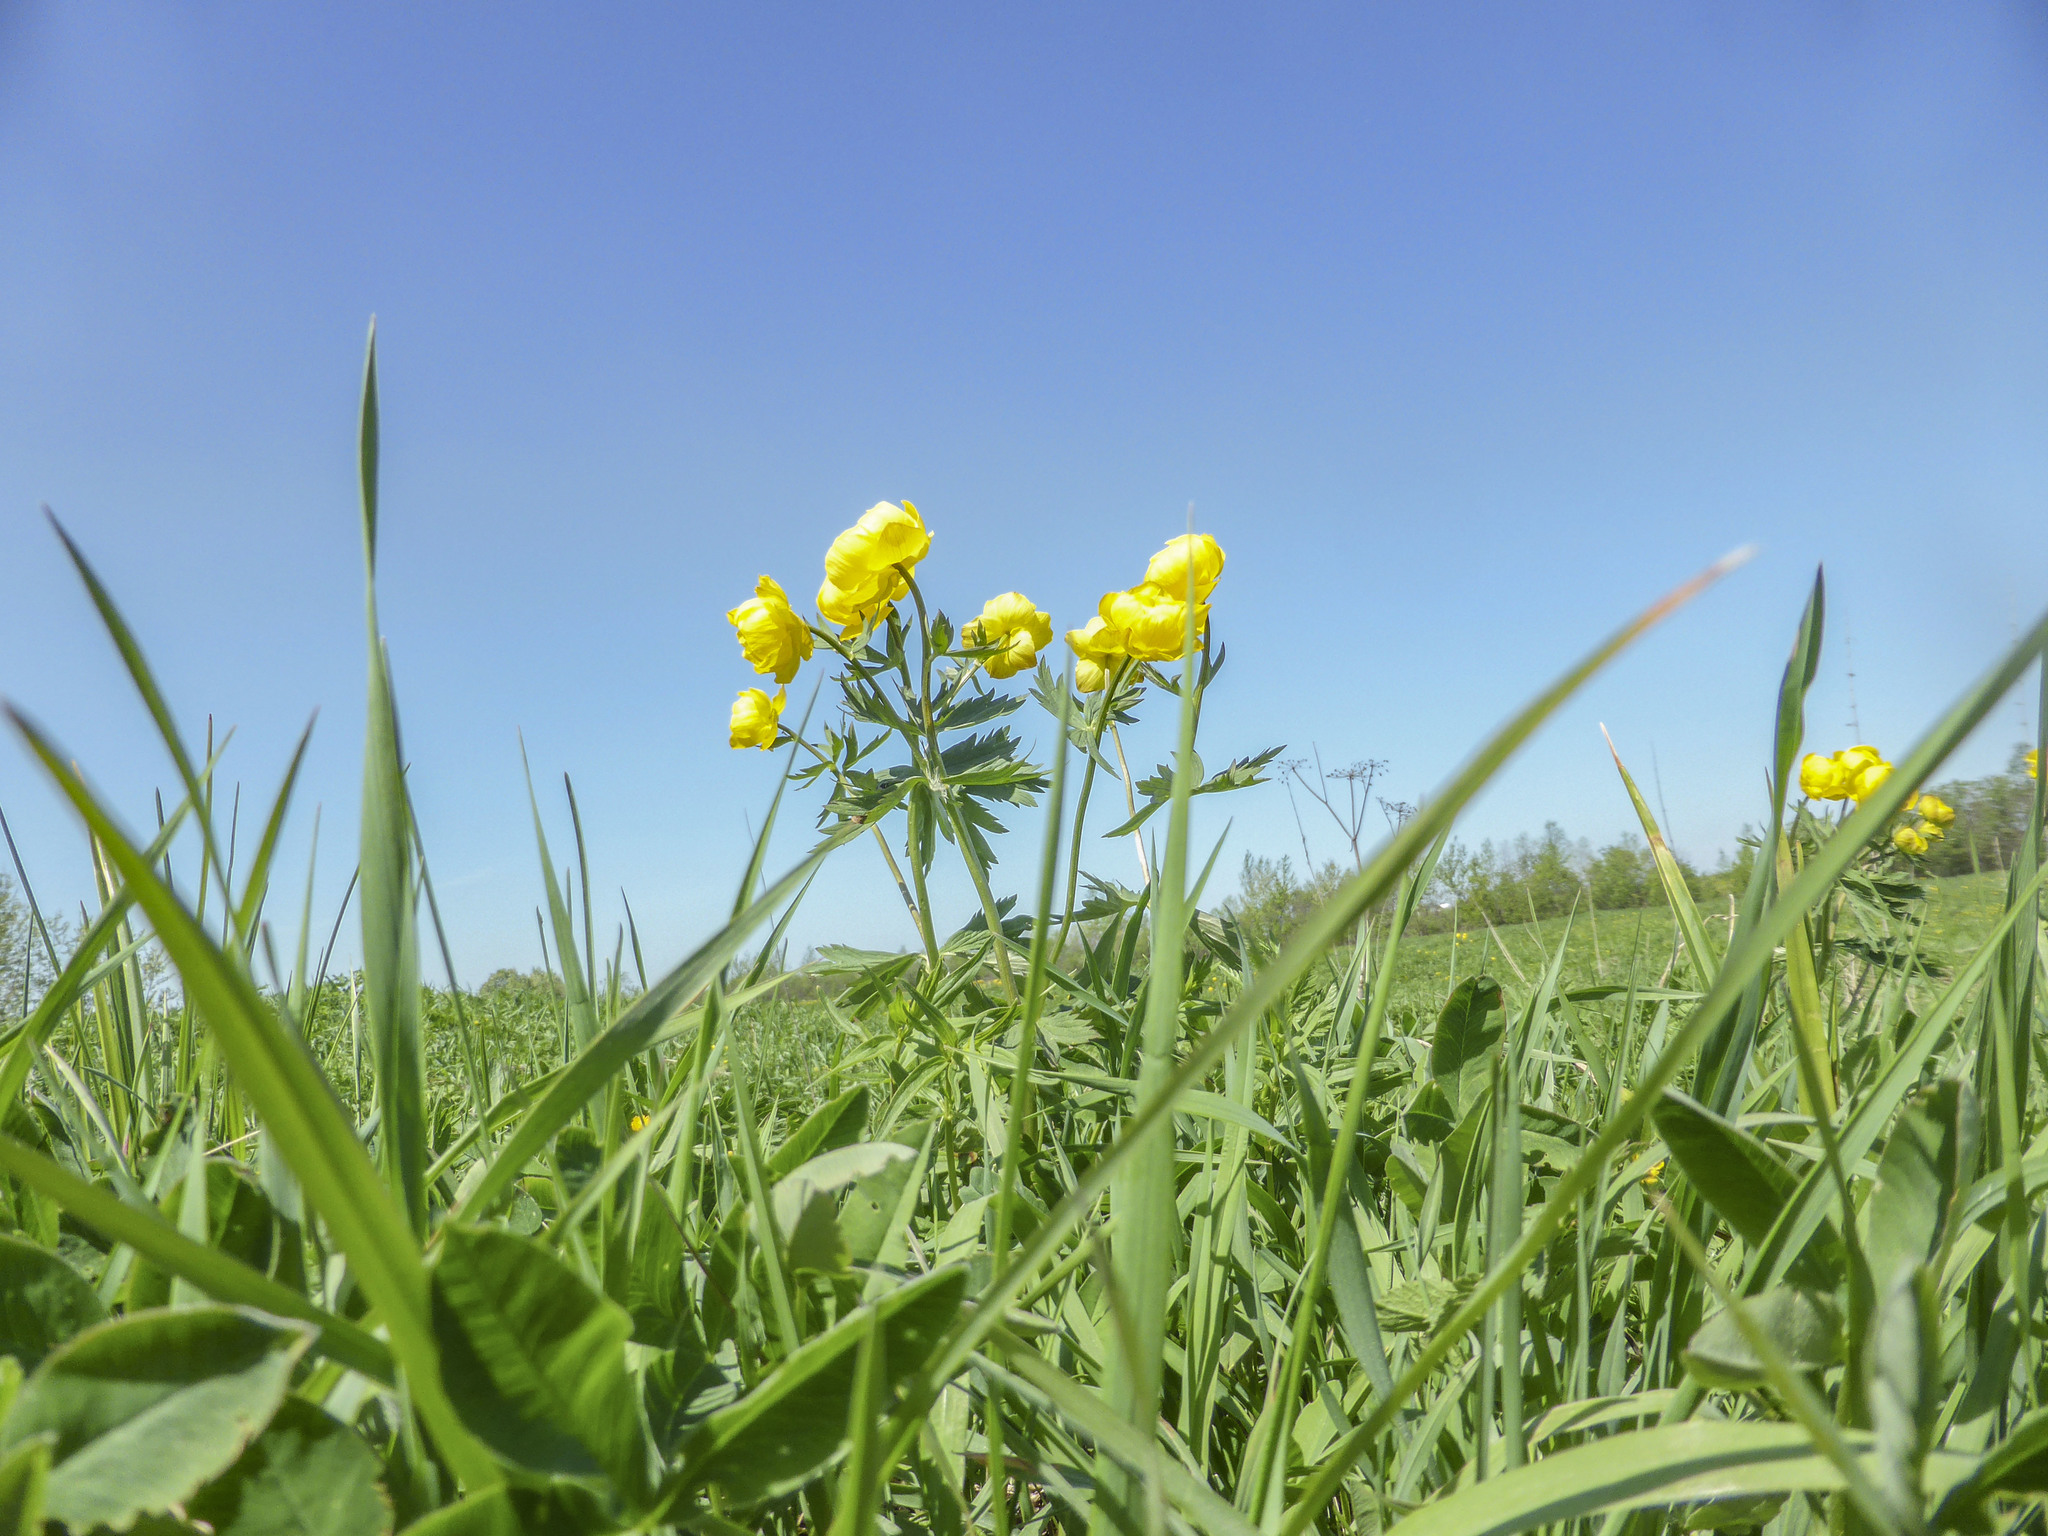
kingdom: Plantae
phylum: Tracheophyta
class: Magnoliopsida
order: Ranunculales
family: Ranunculaceae
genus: Trollius
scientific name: Trollius europaeus
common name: European globeflower
